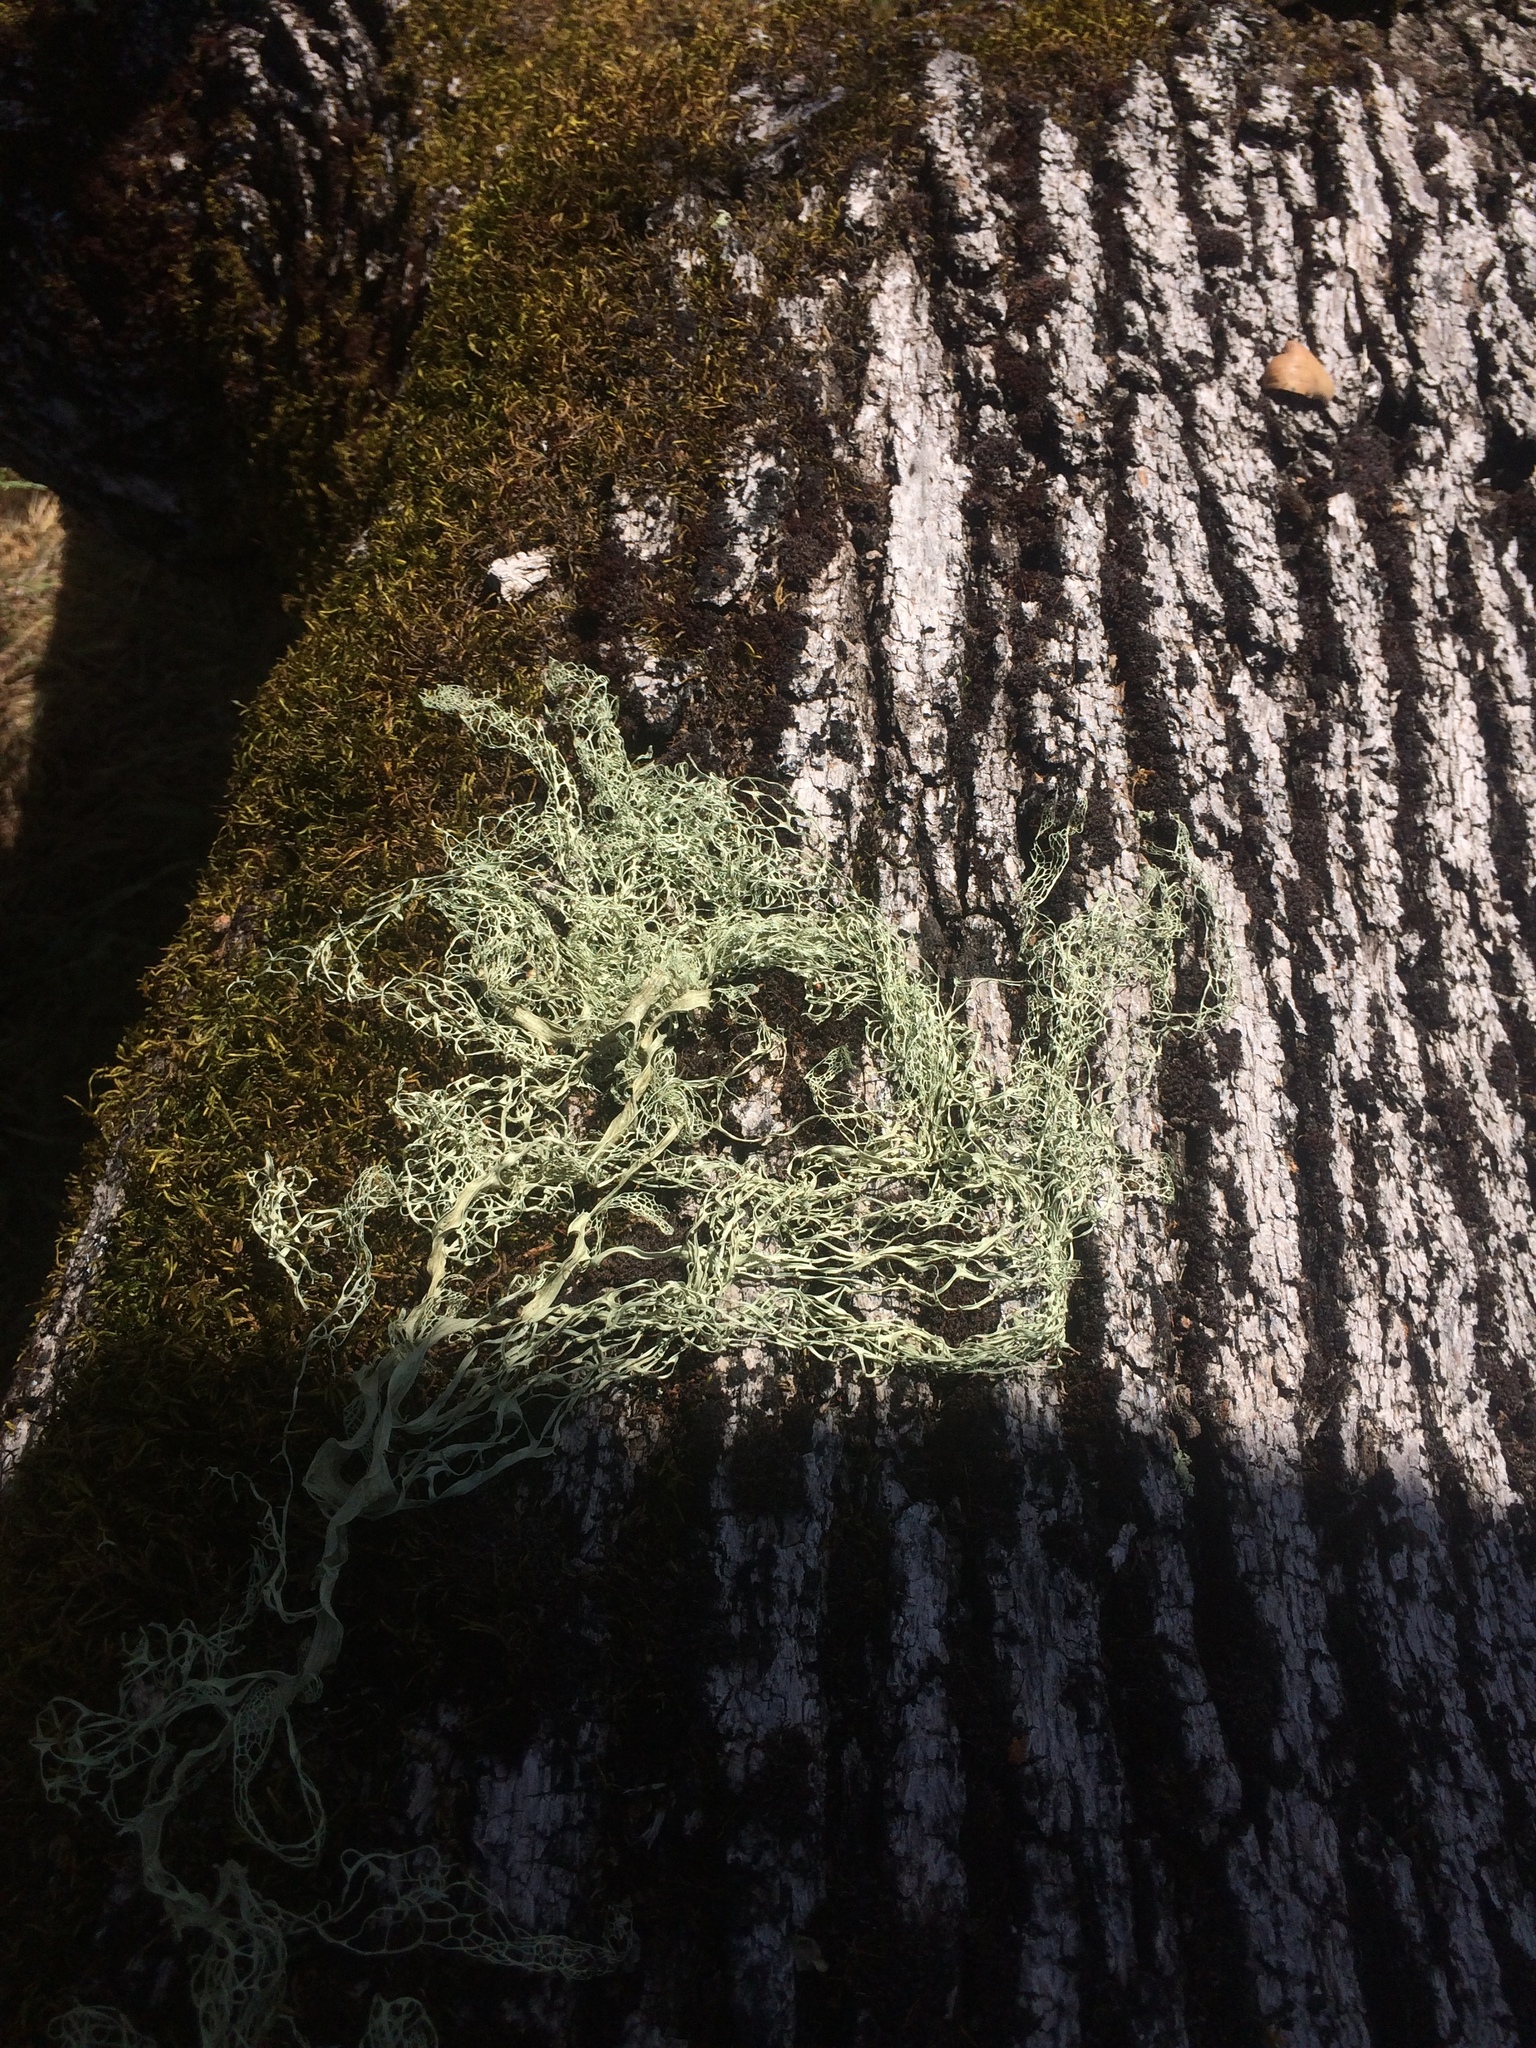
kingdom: Fungi
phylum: Ascomycota
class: Lecanoromycetes
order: Lecanorales
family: Ramalinaceae
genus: Ramalina
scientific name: Ramalina menziesii
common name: Lace lichen
